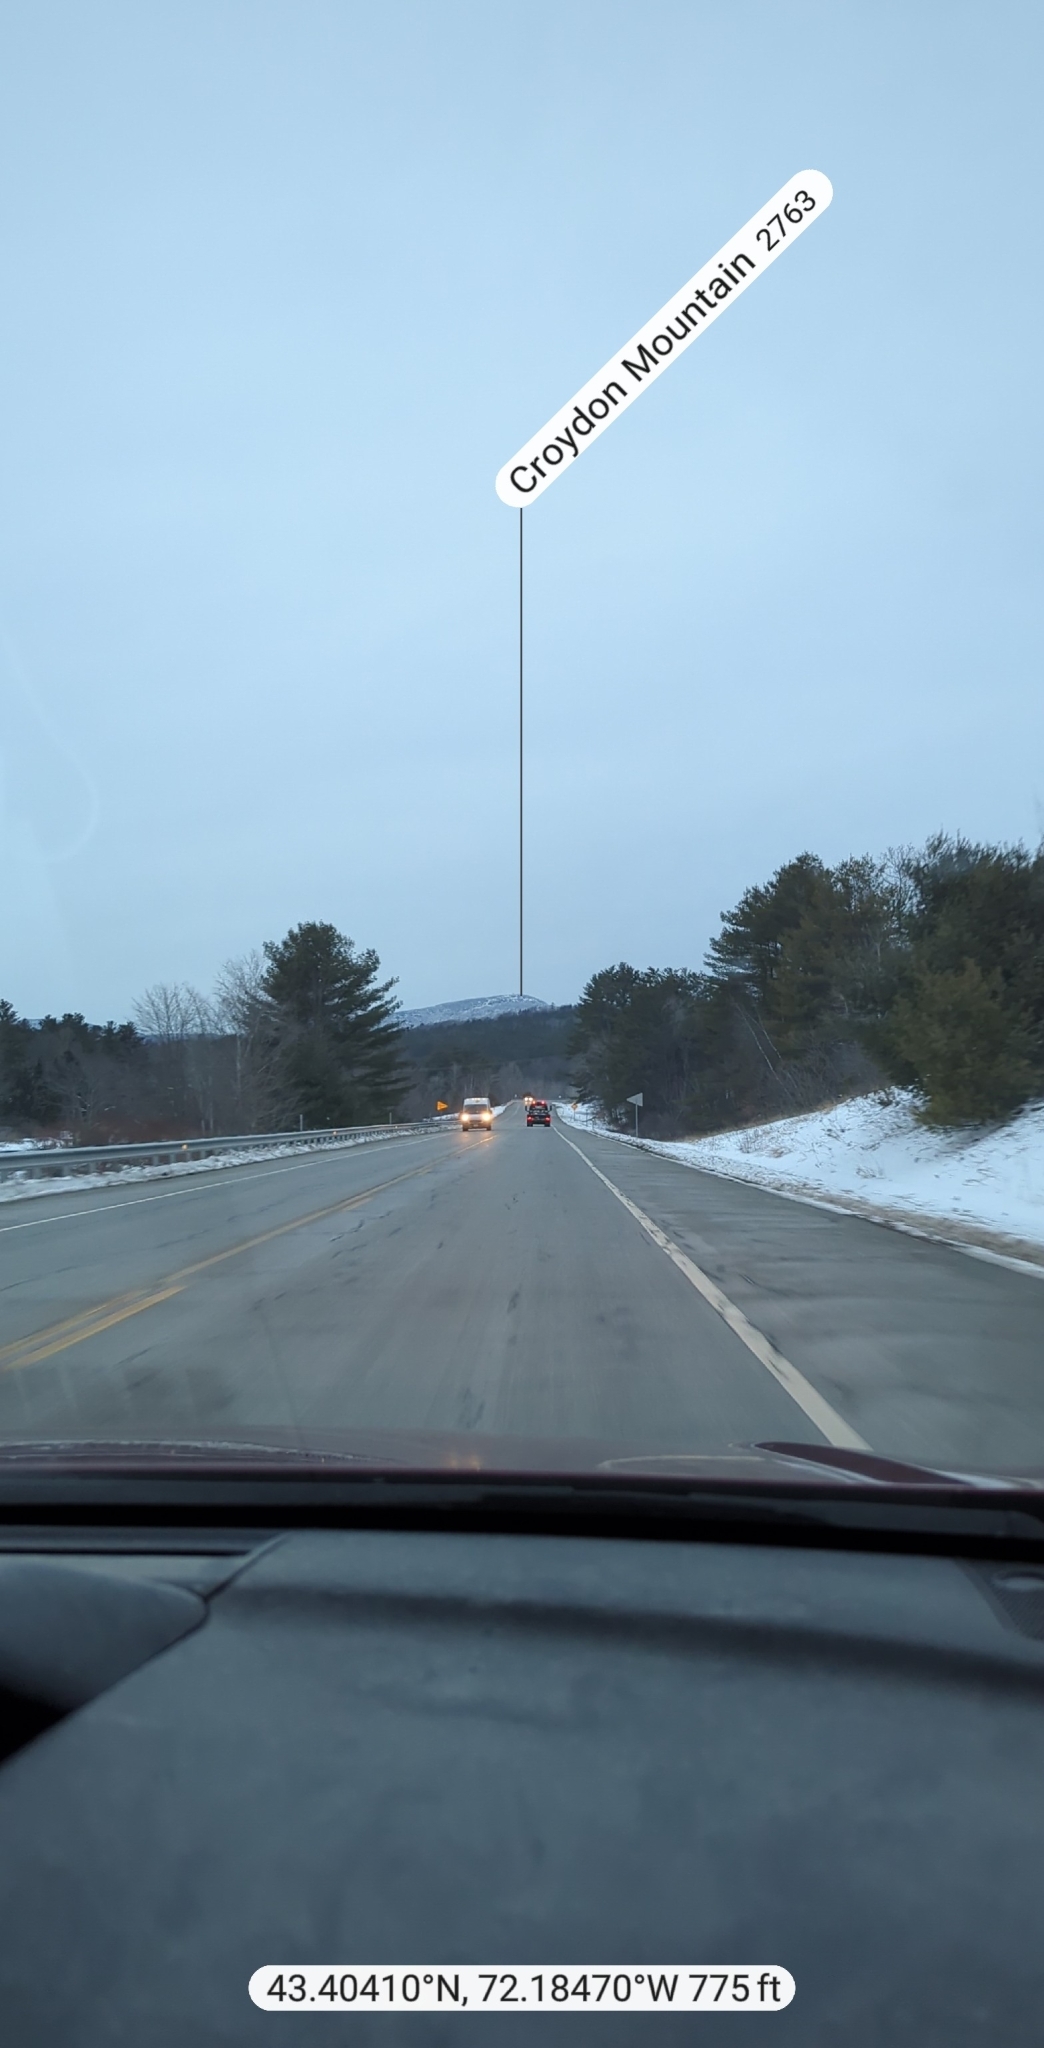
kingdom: Plantae
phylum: Tracheophyta
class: Pinopsida
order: Pinales
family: Pinaceae
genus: Pinus
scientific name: Pinus strobus
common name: Weymouth pine
